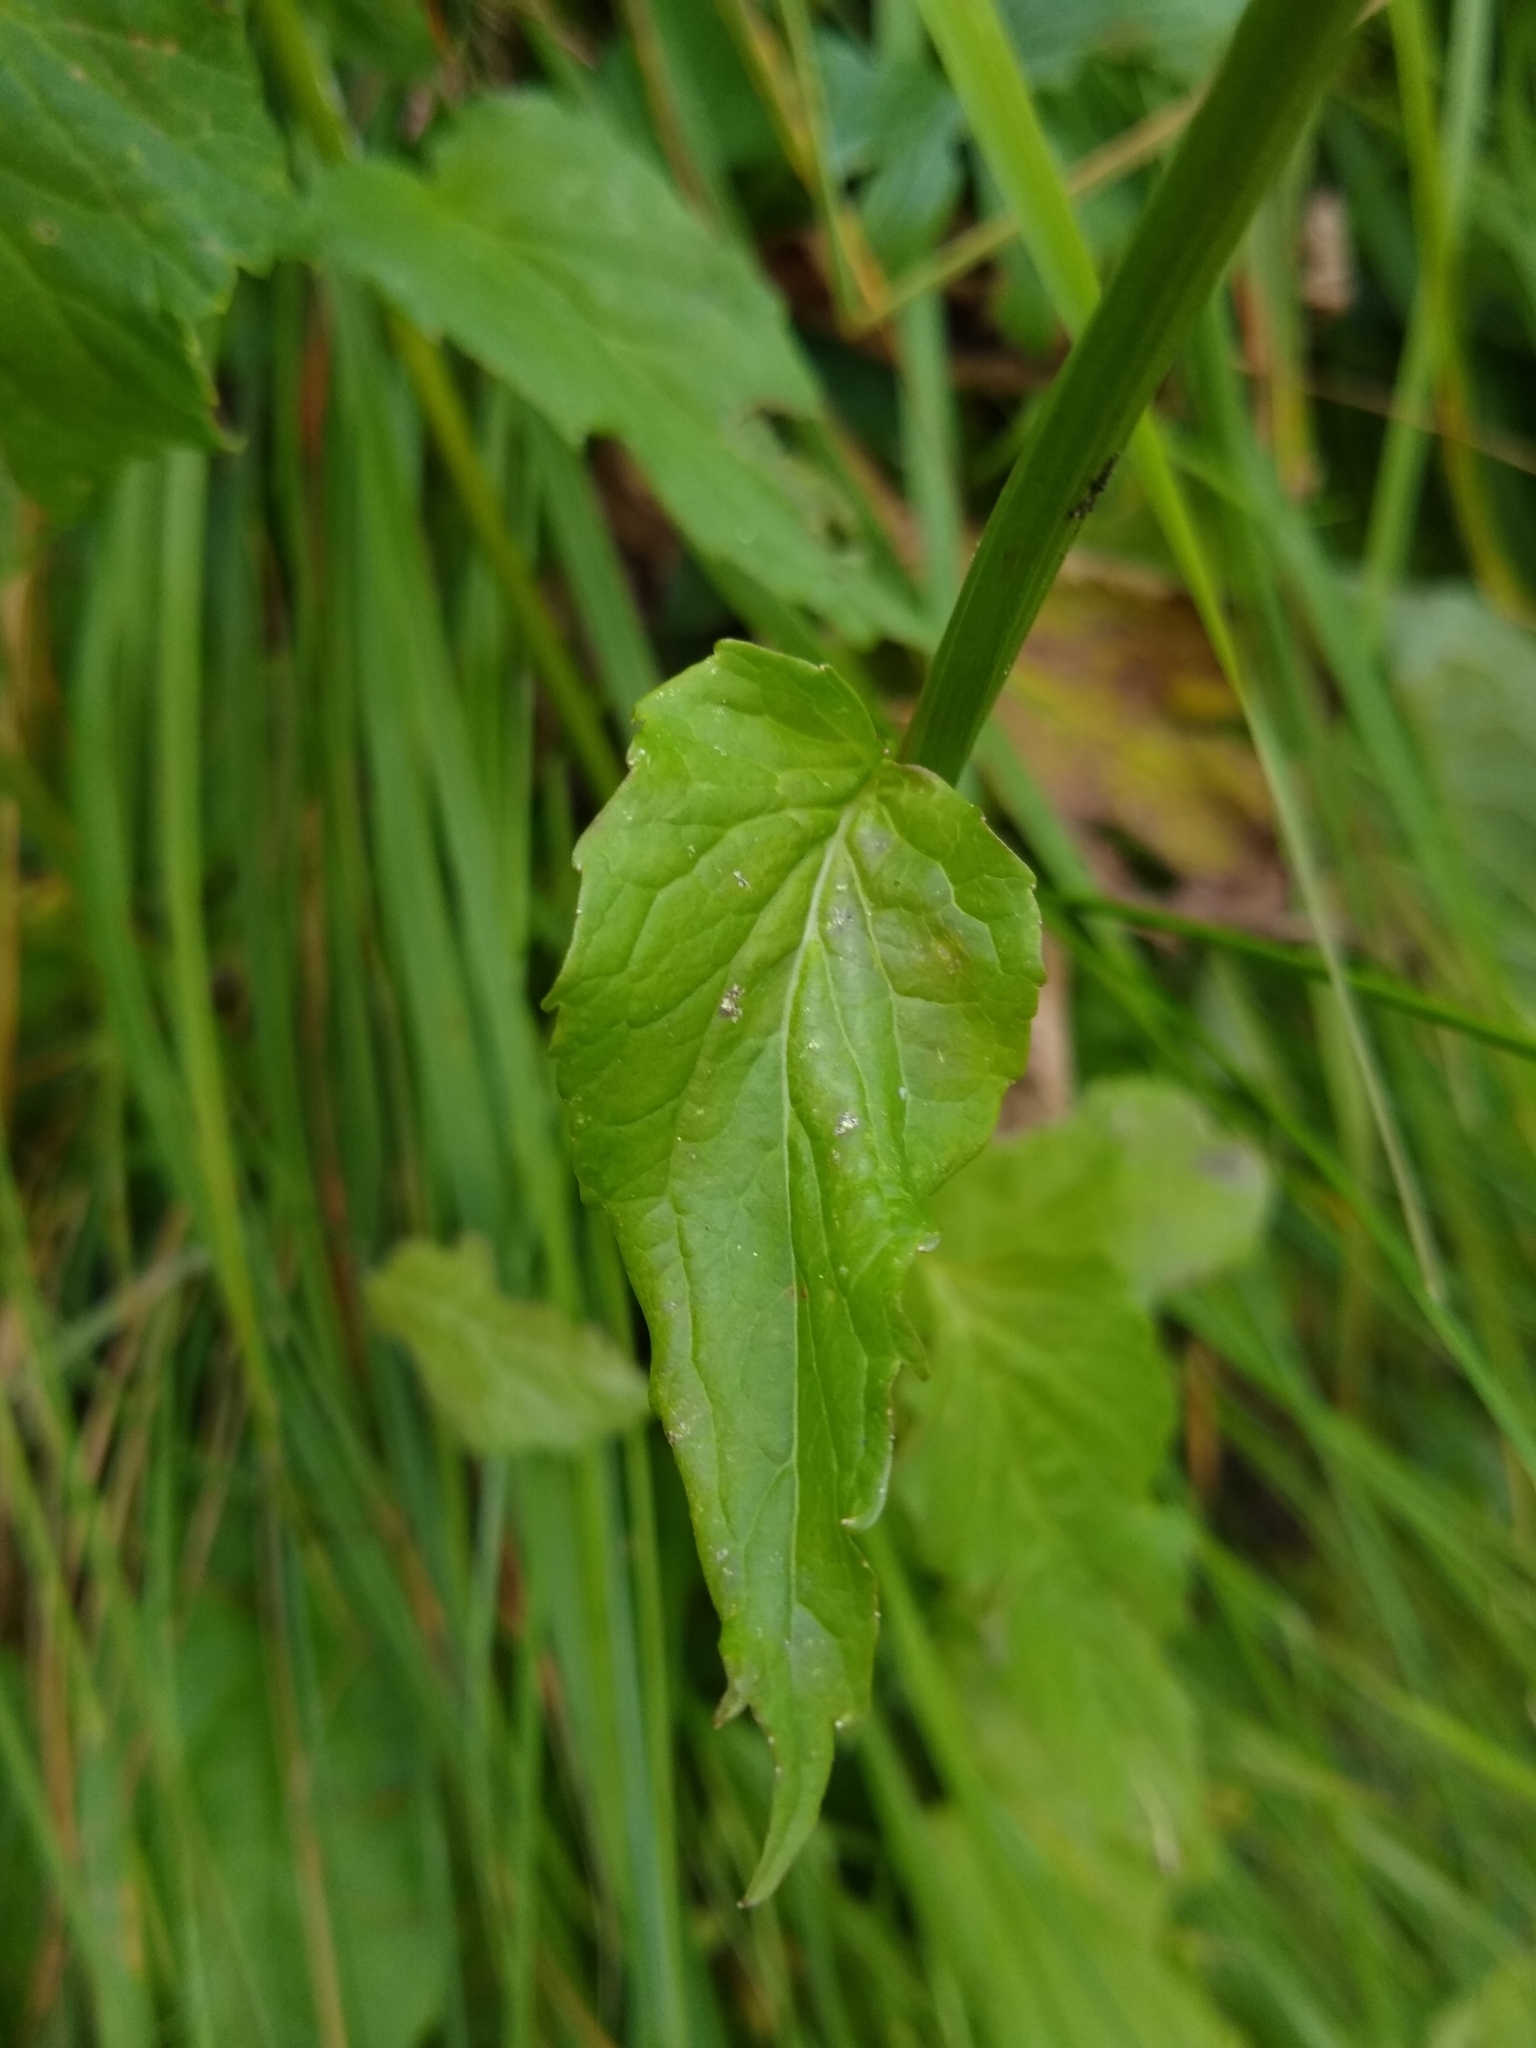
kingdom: Plantae
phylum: Tracheophyta
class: Magnoliopsida
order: Asterales
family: Campanulaceae
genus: Phyteuma
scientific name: Phyteuma ovatum
